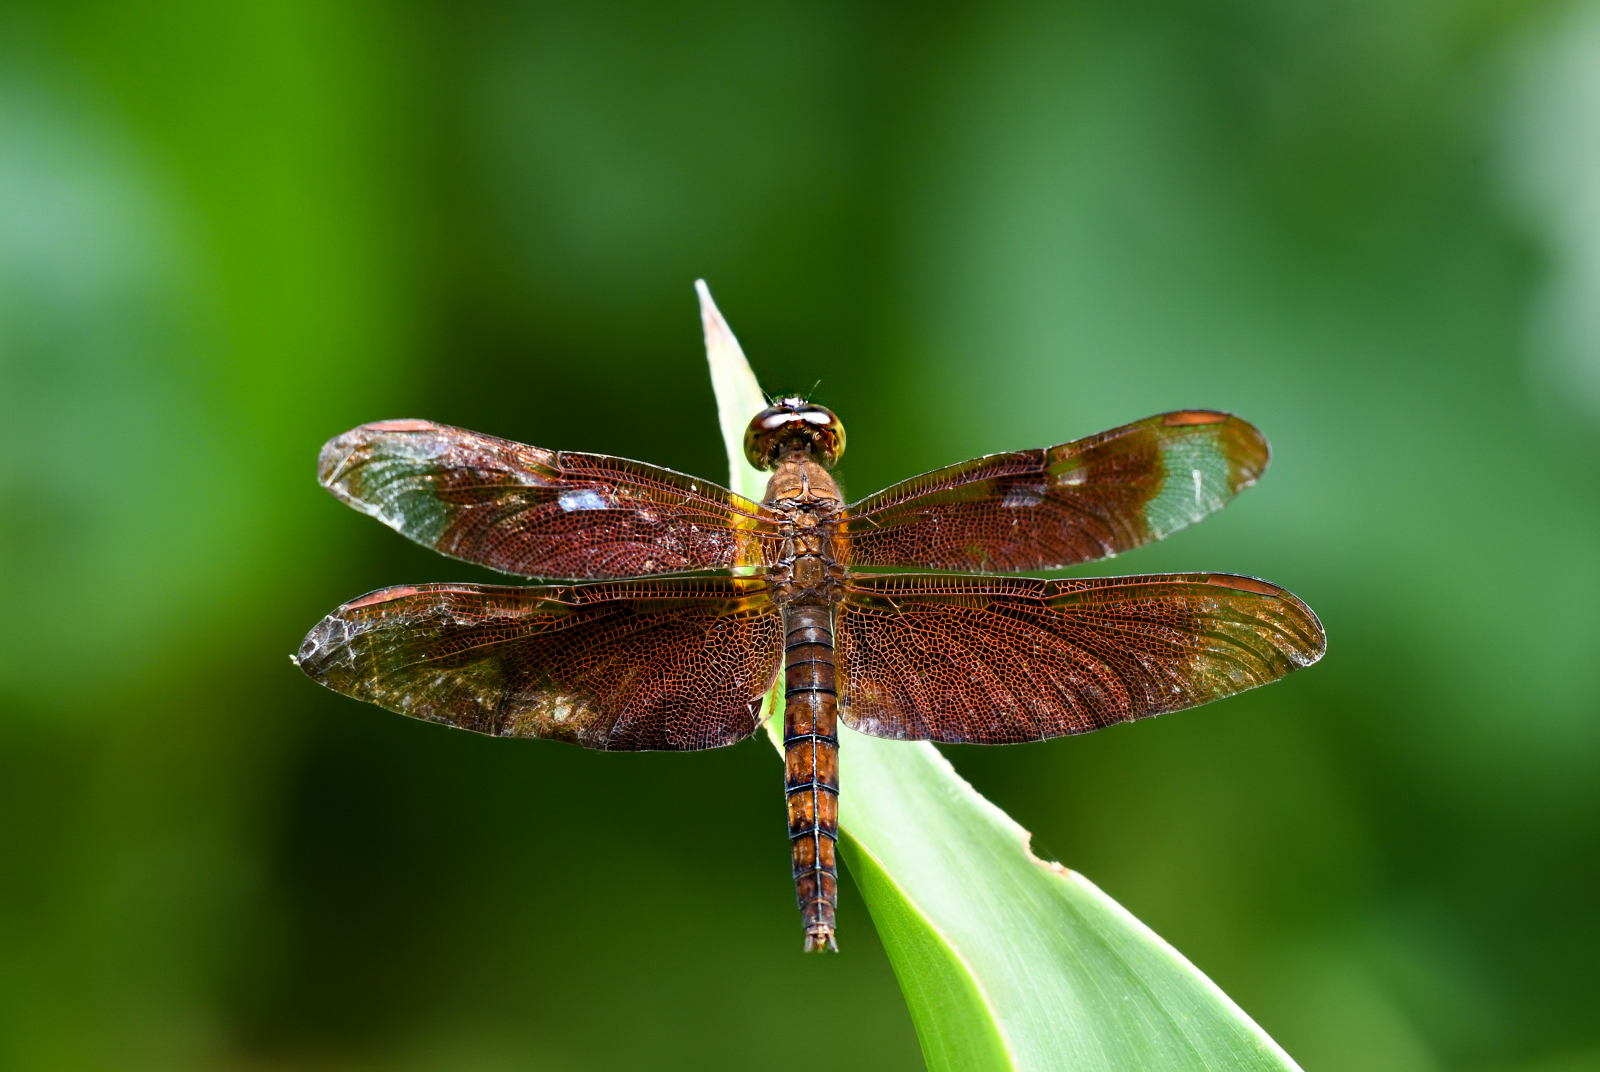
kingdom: Animalia
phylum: Arthropoda
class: Insecta
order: Odonata
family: Libellulidae
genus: Neurothemis
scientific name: Neurothemis fulvia
